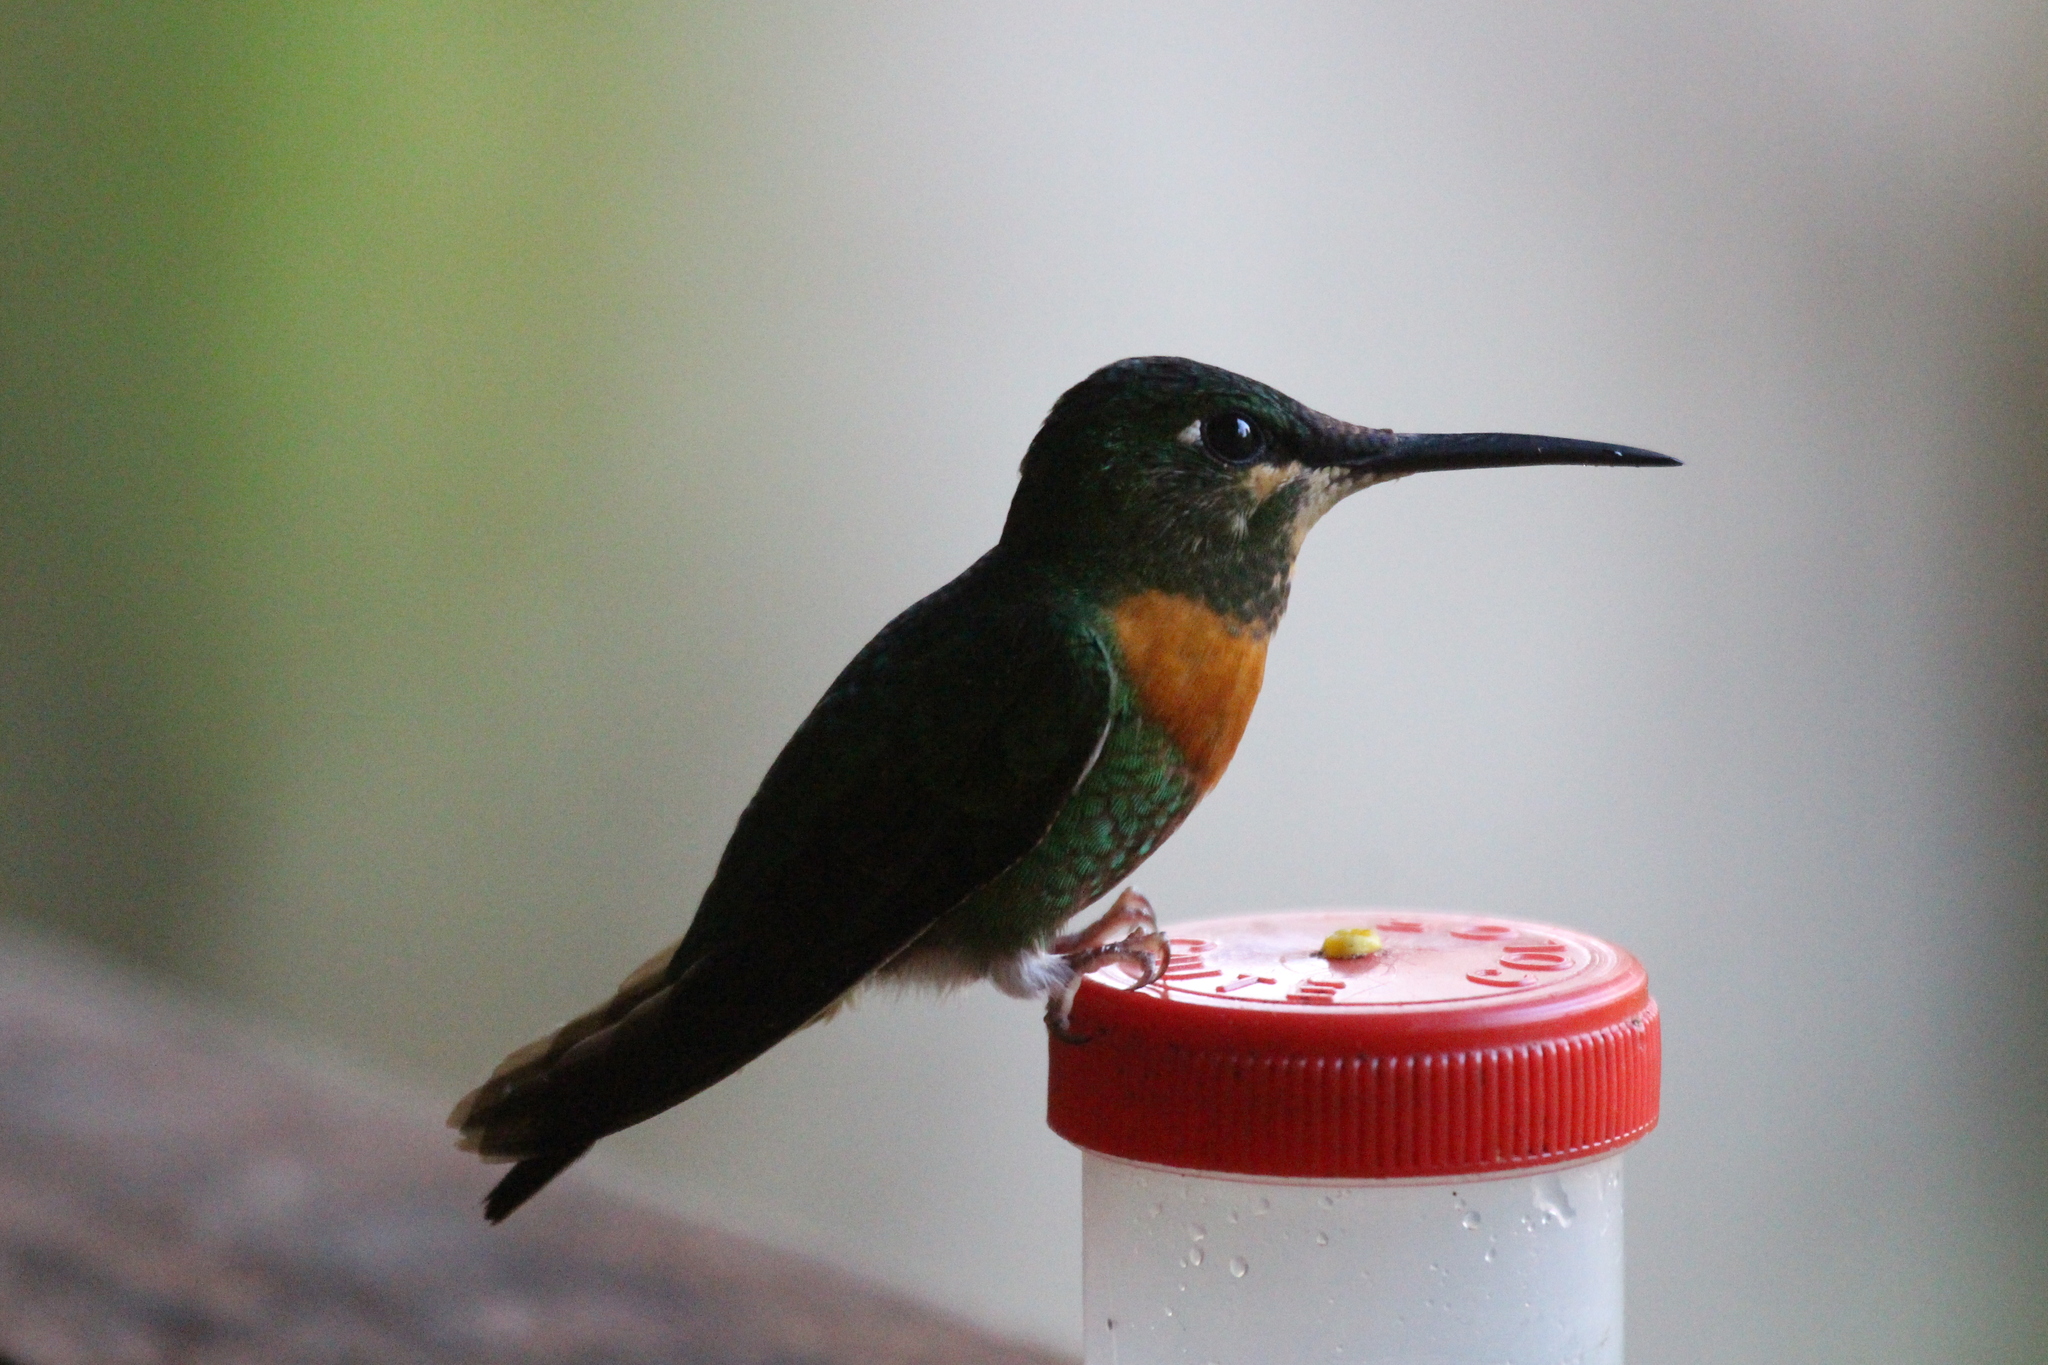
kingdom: Animalia
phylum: Chordata
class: Aves
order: Apodiformes
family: Trochilidae
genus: Heliodoxa
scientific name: Heliodoxa aurescens
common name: Gould's jewelfront
